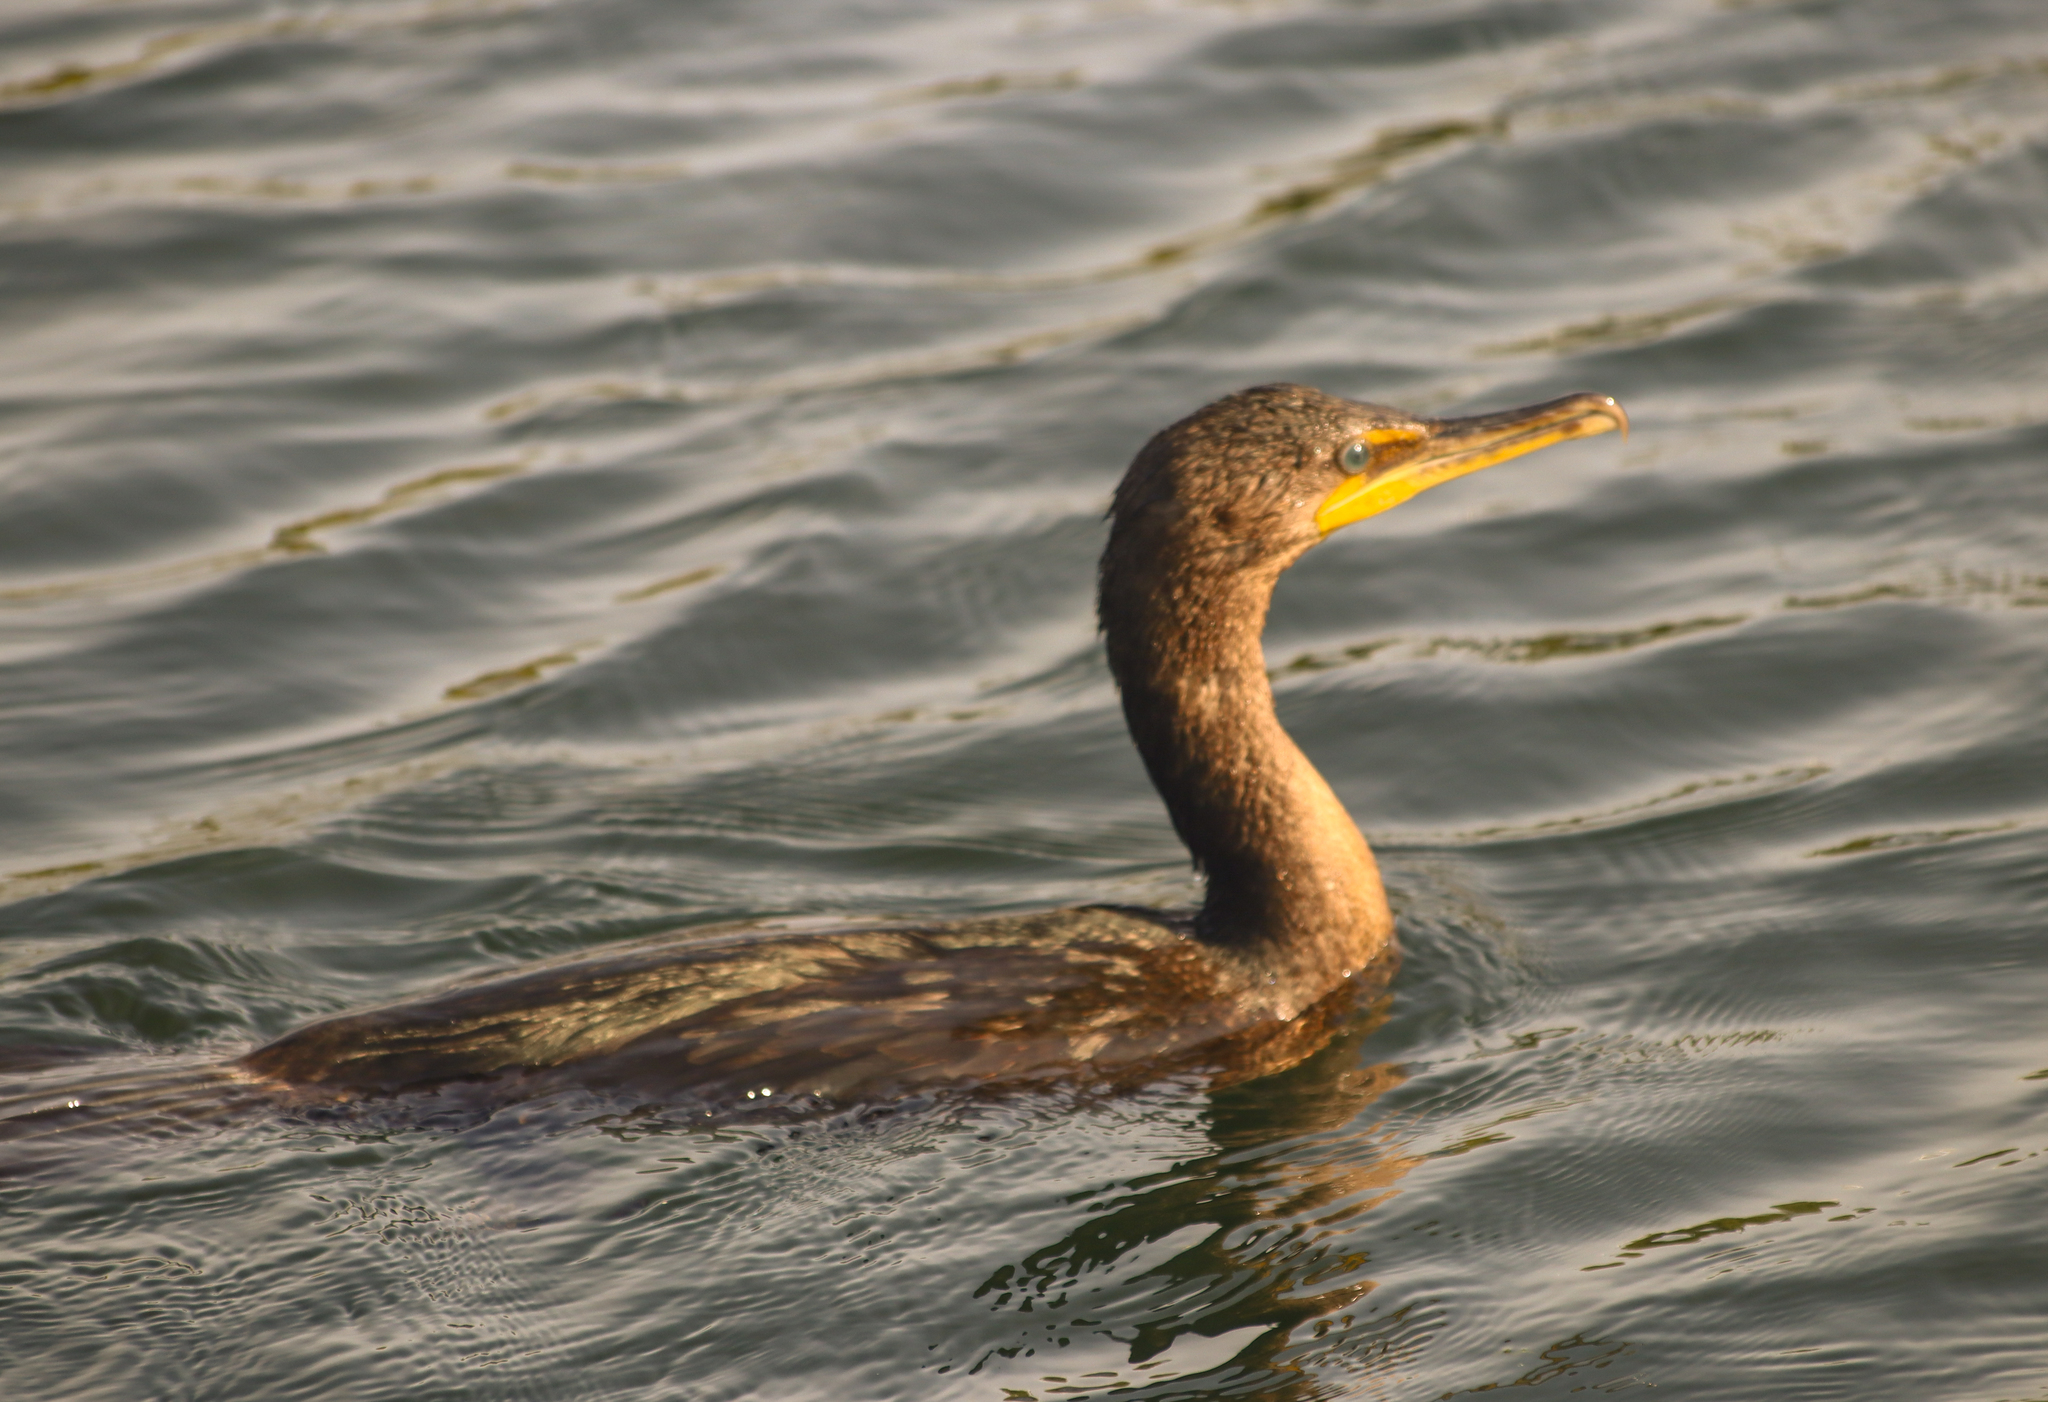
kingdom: Animalia
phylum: Chordata
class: Aves
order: Suliformes
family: Phalacrocoracidae
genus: Phalacrocorax
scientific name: Phalacrocorax auritus
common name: Double-crested cormorant
